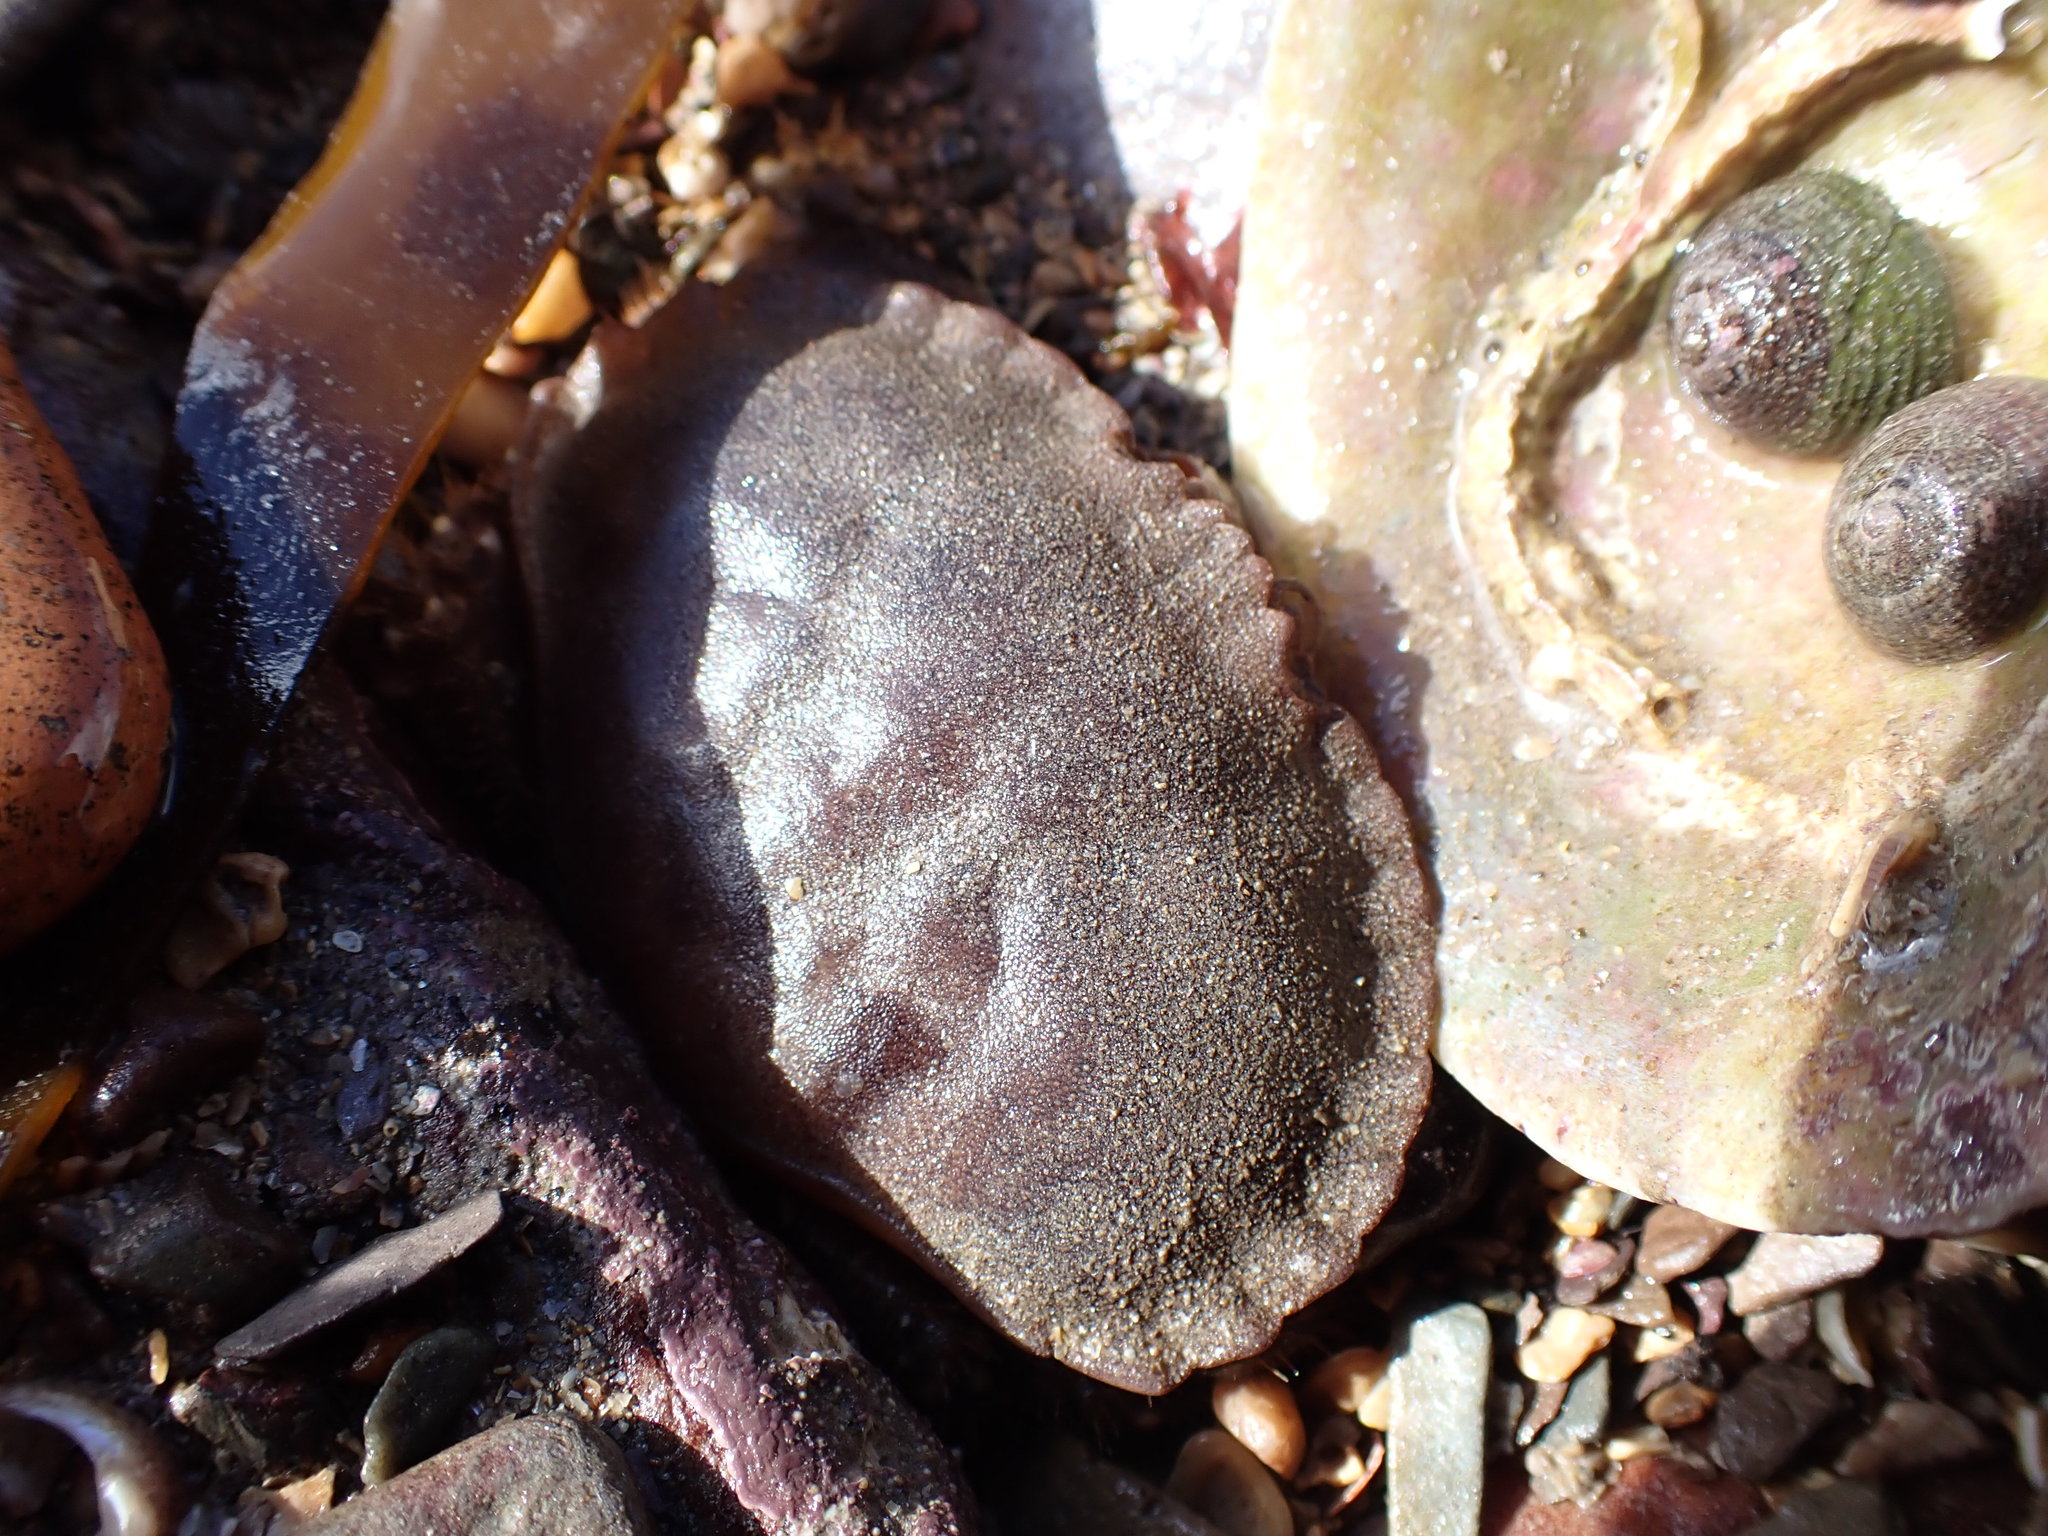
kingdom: Animalia
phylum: Arthropoda
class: Malacostraca
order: Decapoda
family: Cancridae
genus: Cancer
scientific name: Cancer pagurus
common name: Edible crab
